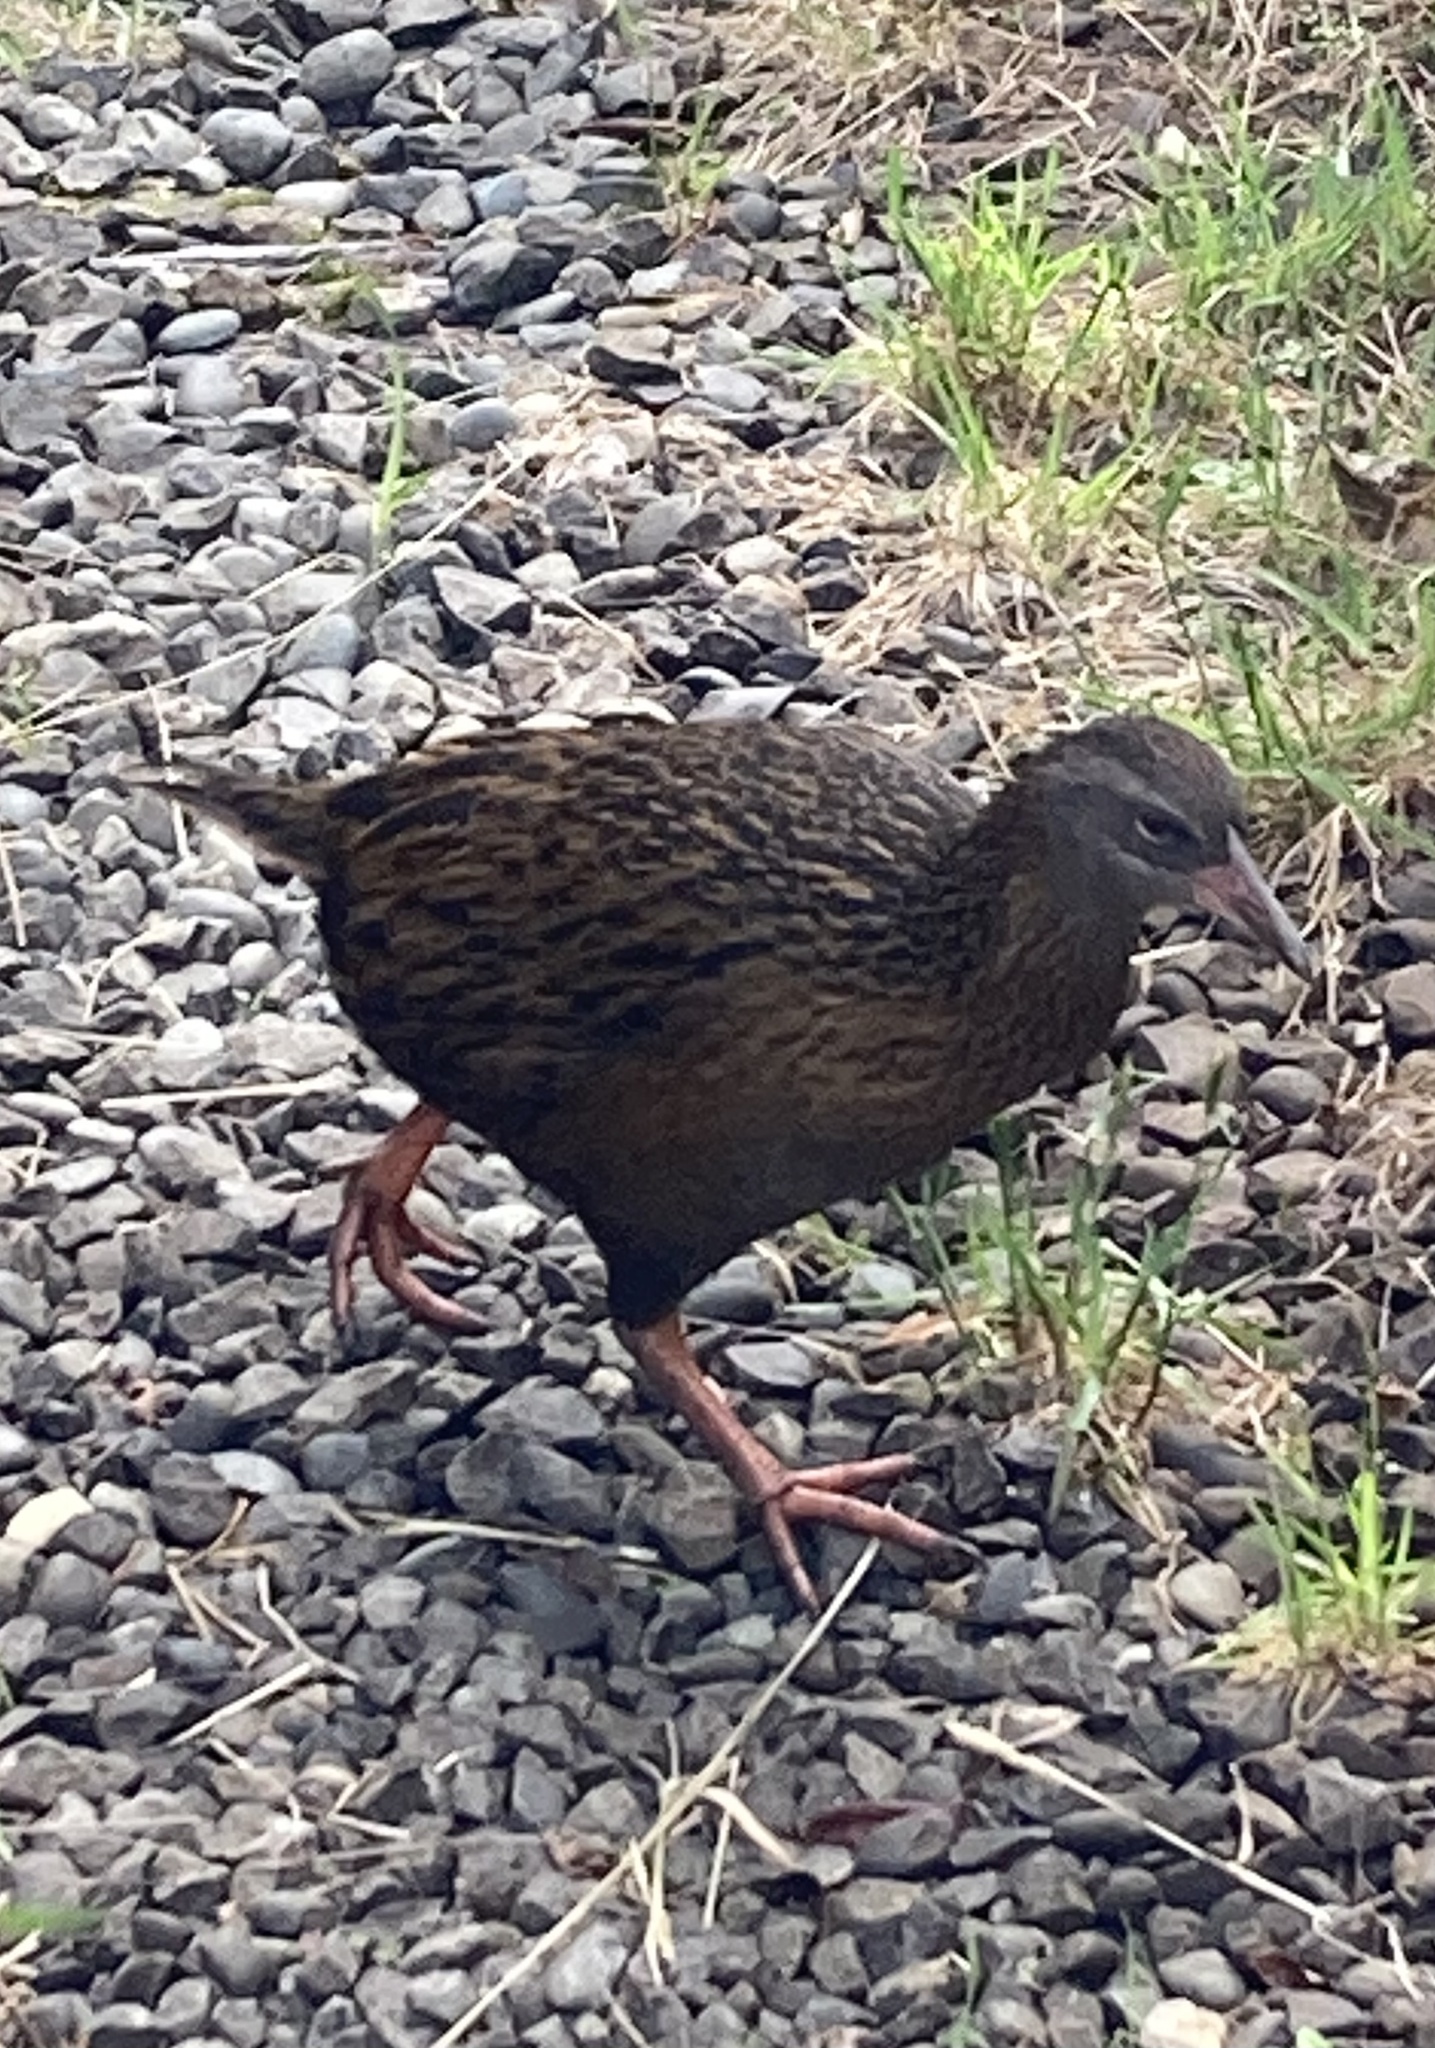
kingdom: Animalia
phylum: Chordata
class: Aves
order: Gruiformes
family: Rallidae
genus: Gallirallus
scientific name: Gallirallus australis
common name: Weka
